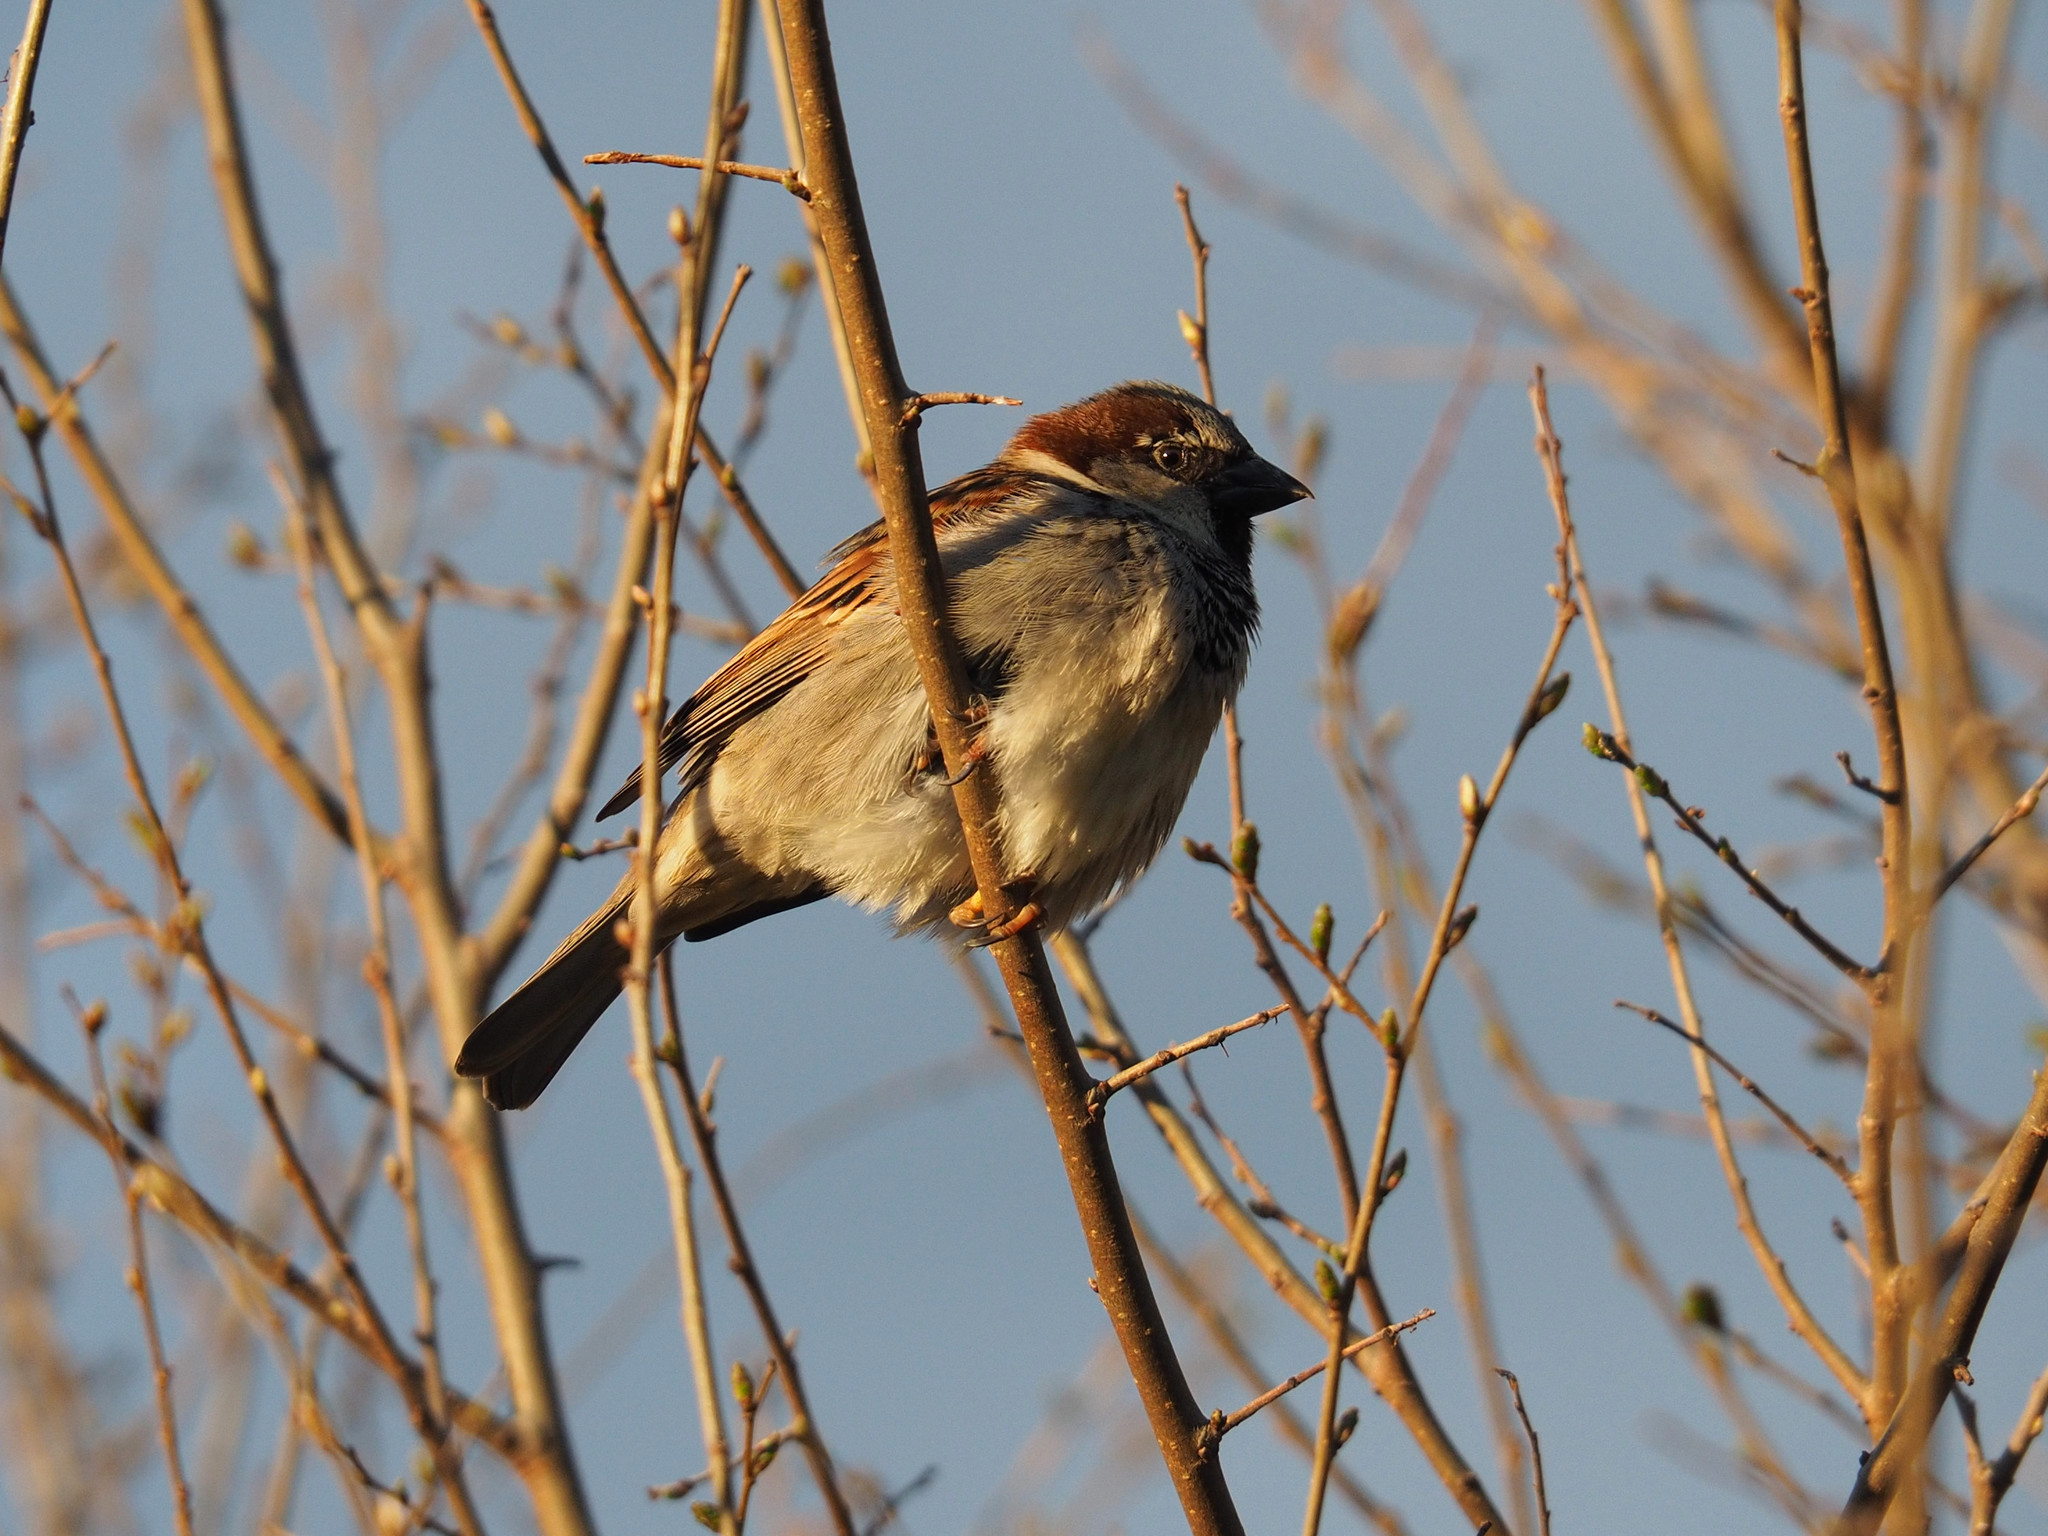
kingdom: Animalia
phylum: Chordata
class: Aves
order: Passeriformes
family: Passeridae
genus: Passer
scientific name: Passer domesticus
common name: House sparrow
